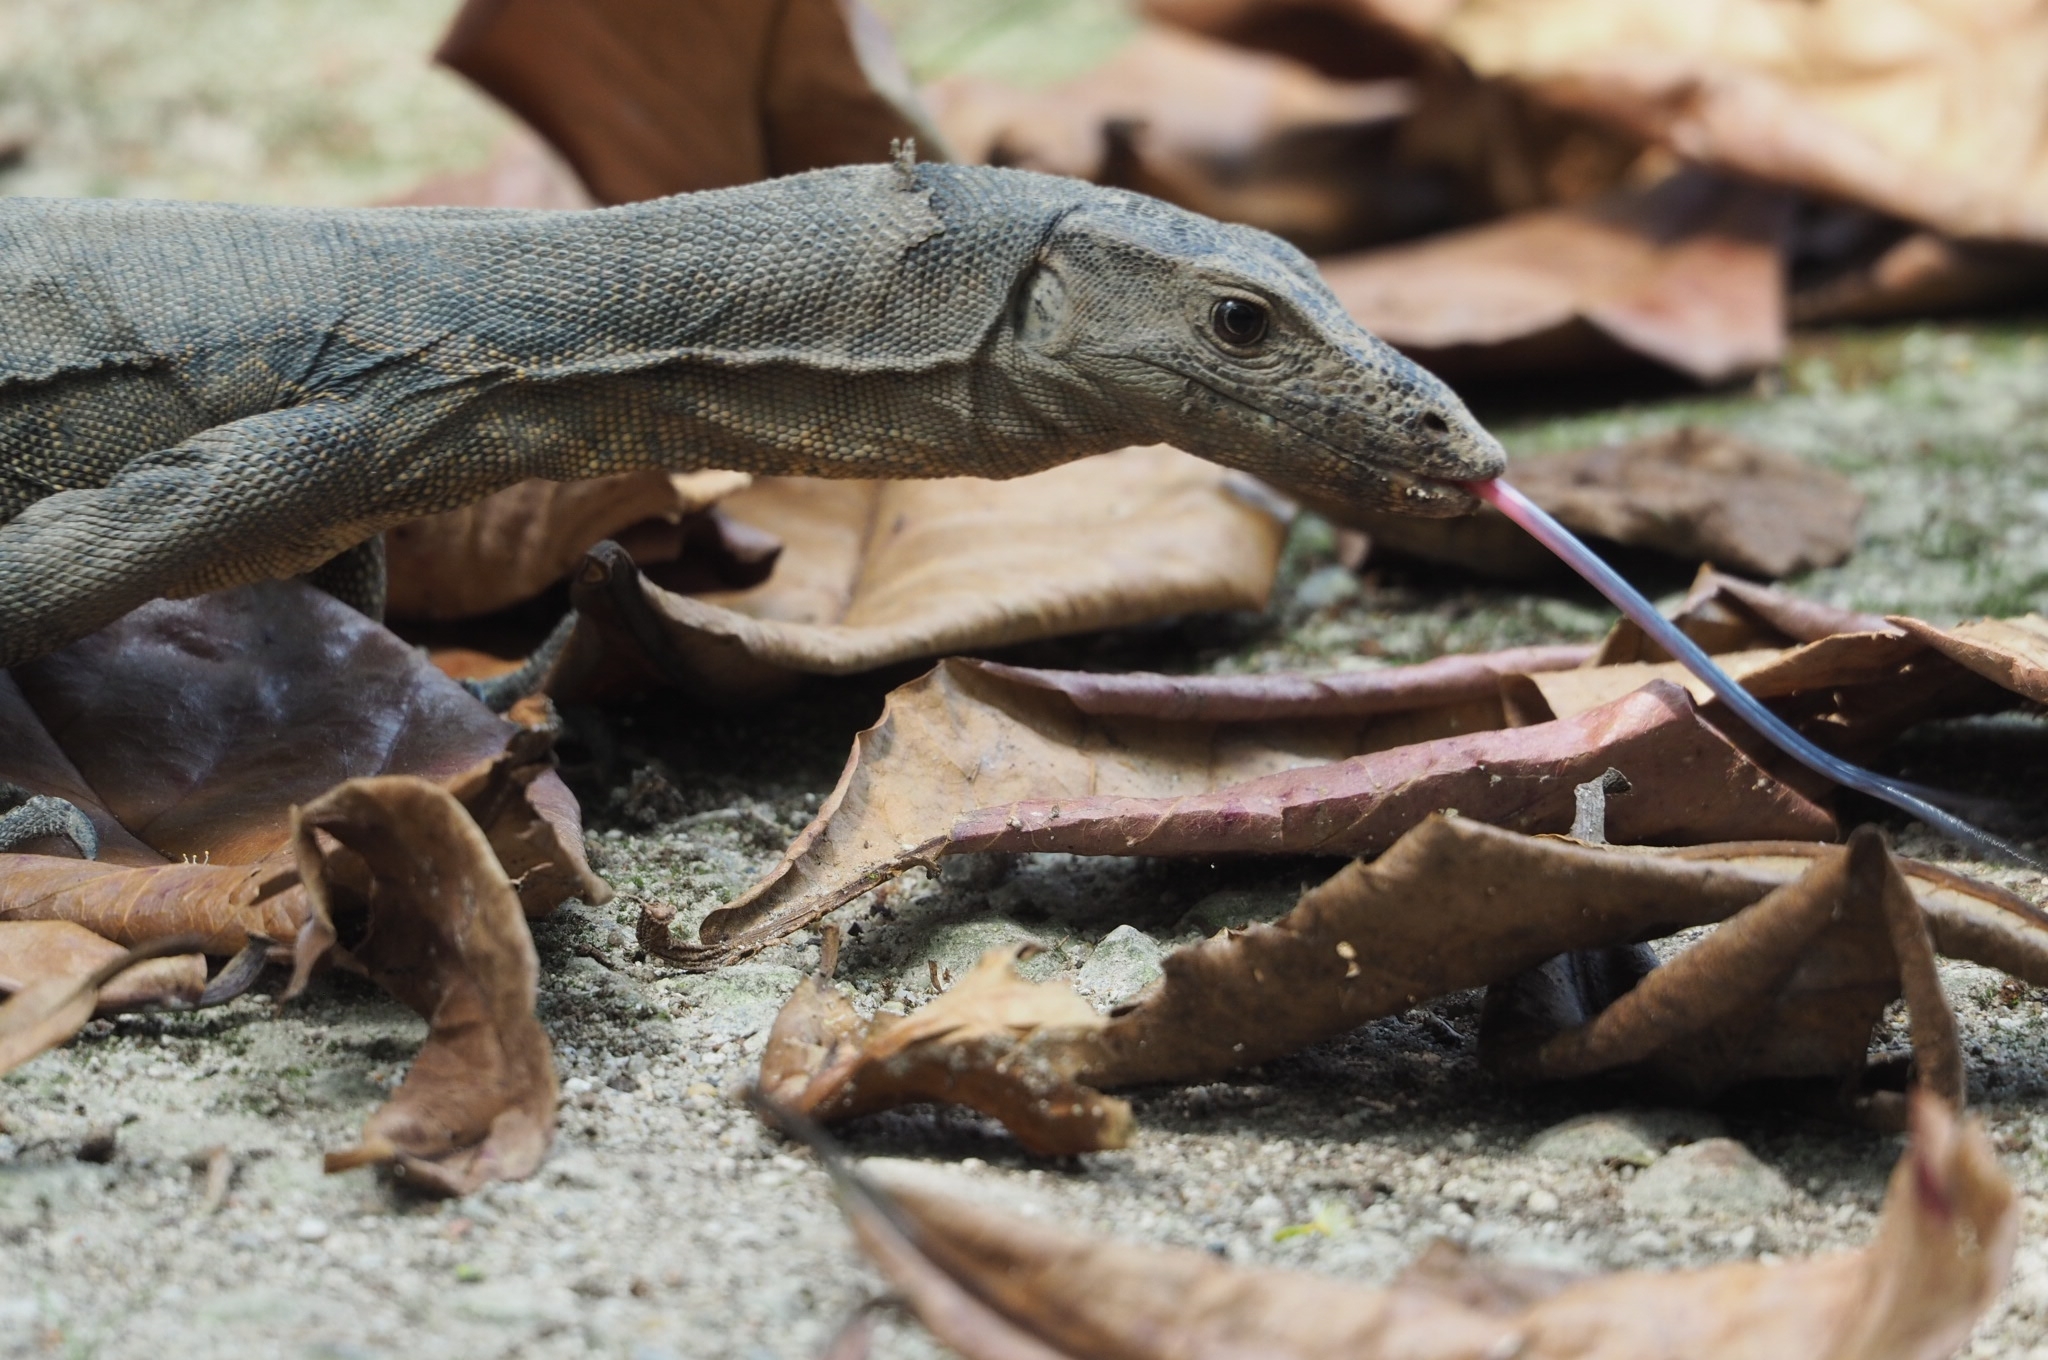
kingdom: Animalia
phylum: Chordata
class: Squamata
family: Varanidae
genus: Varanus
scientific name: Varanus salvator
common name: Common water monitor
